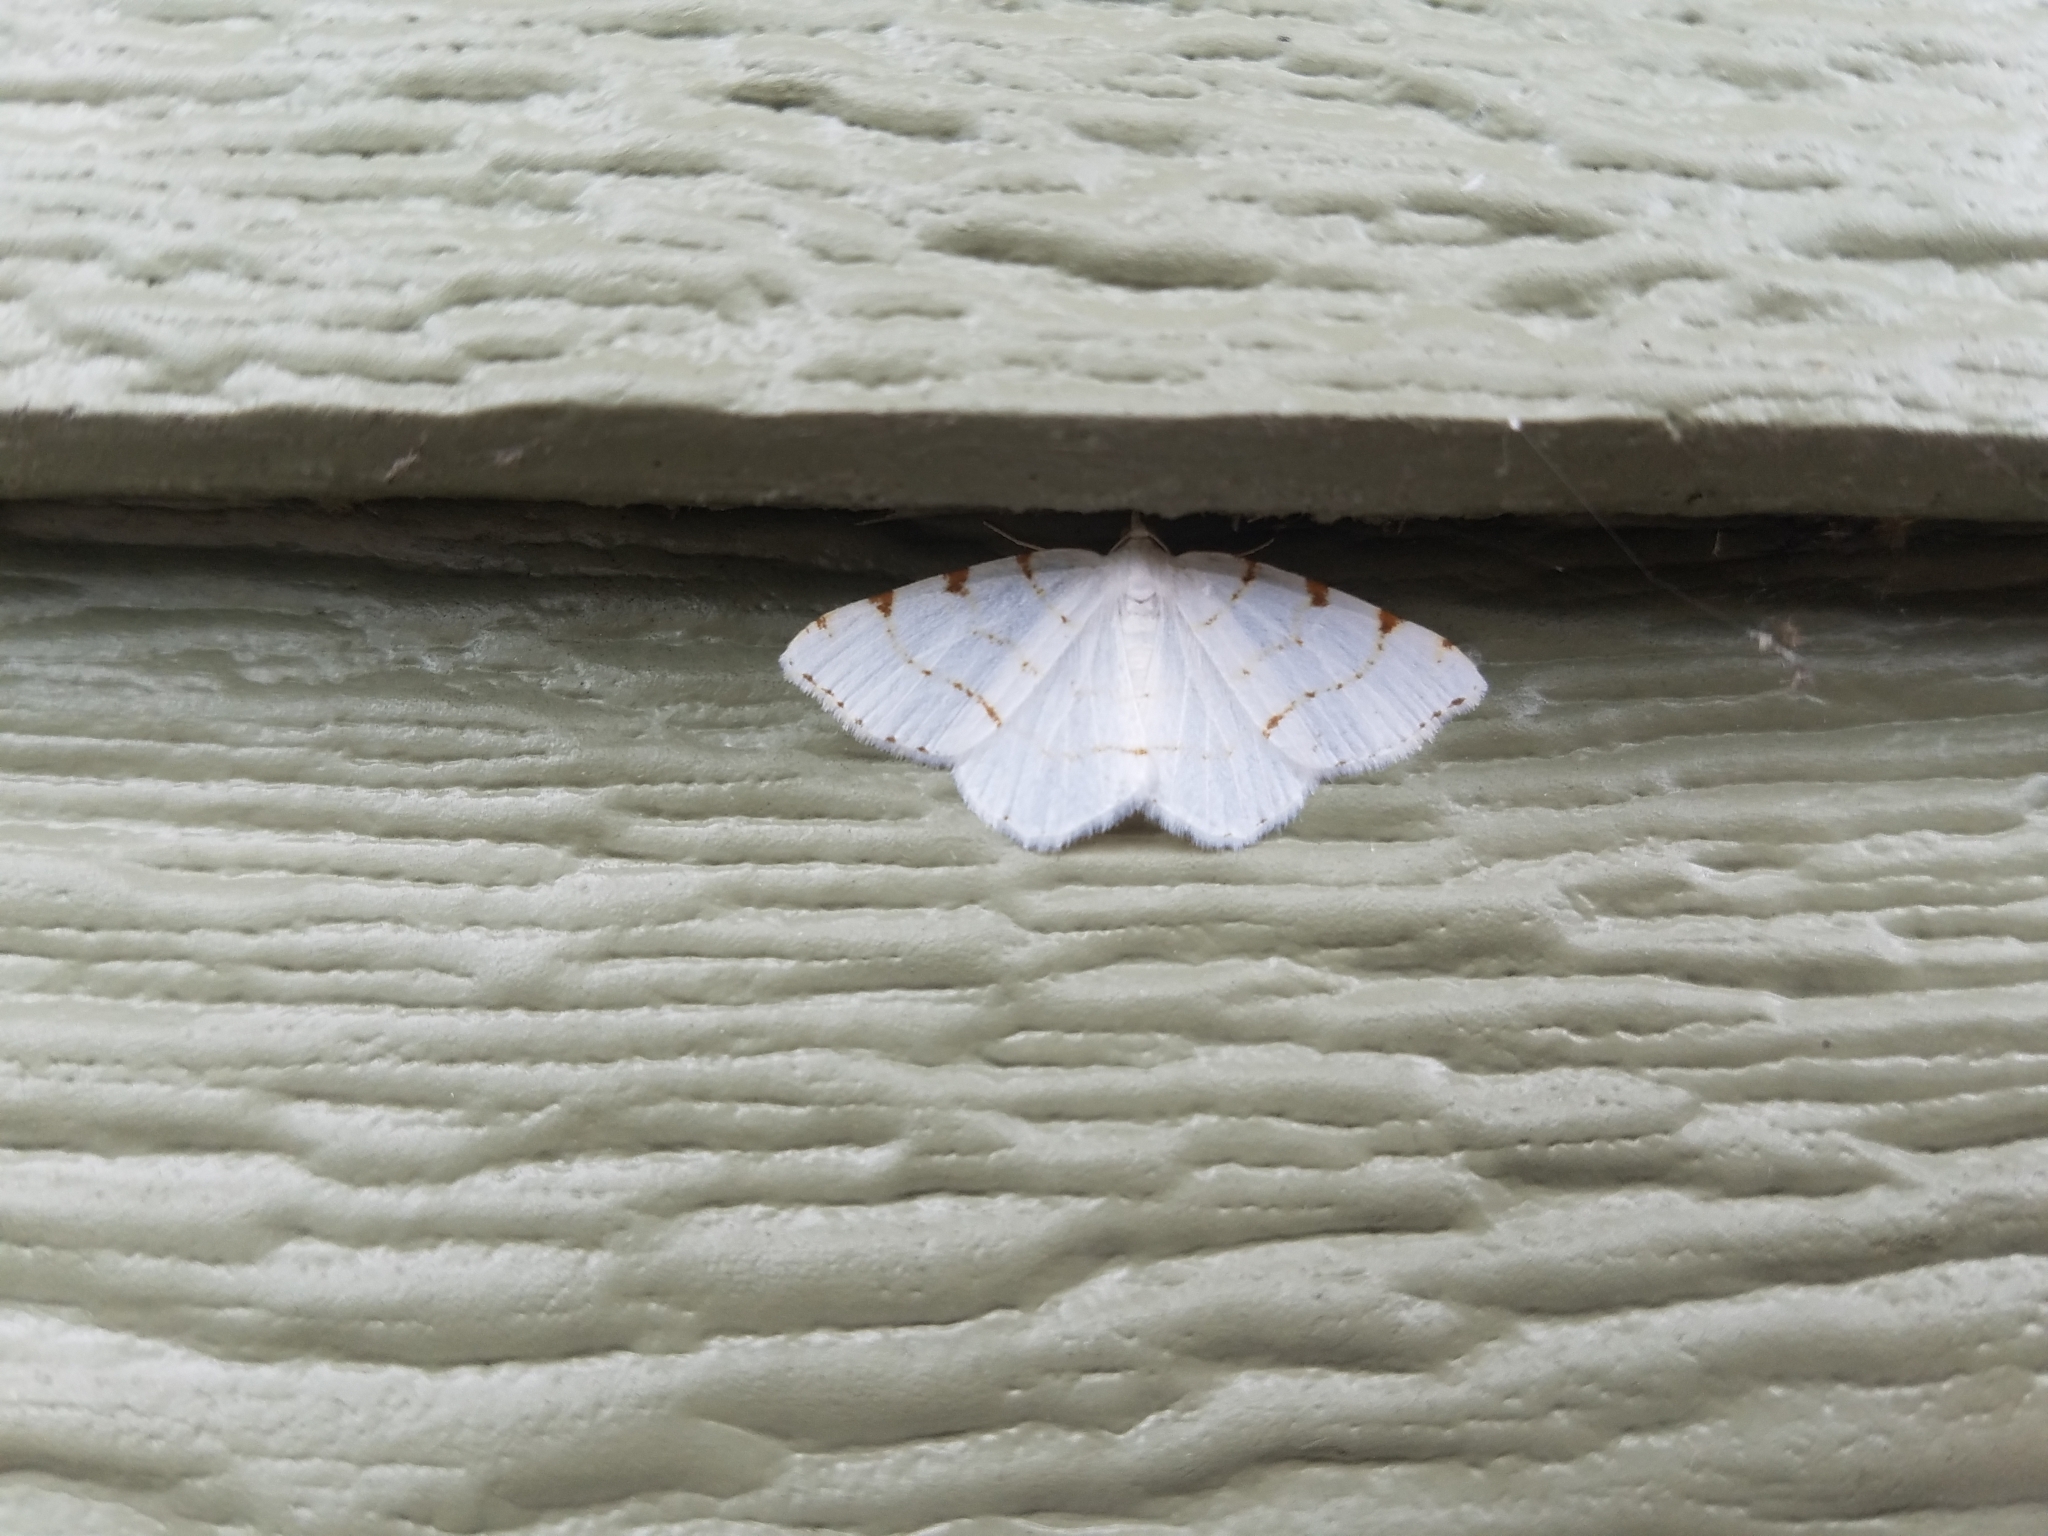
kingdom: Animalia
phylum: Arthropoda
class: Insecta
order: Lepidoptera
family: Geometridae
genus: Macaria
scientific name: Macaria pustularia
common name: Lesser maple spanworm moth
